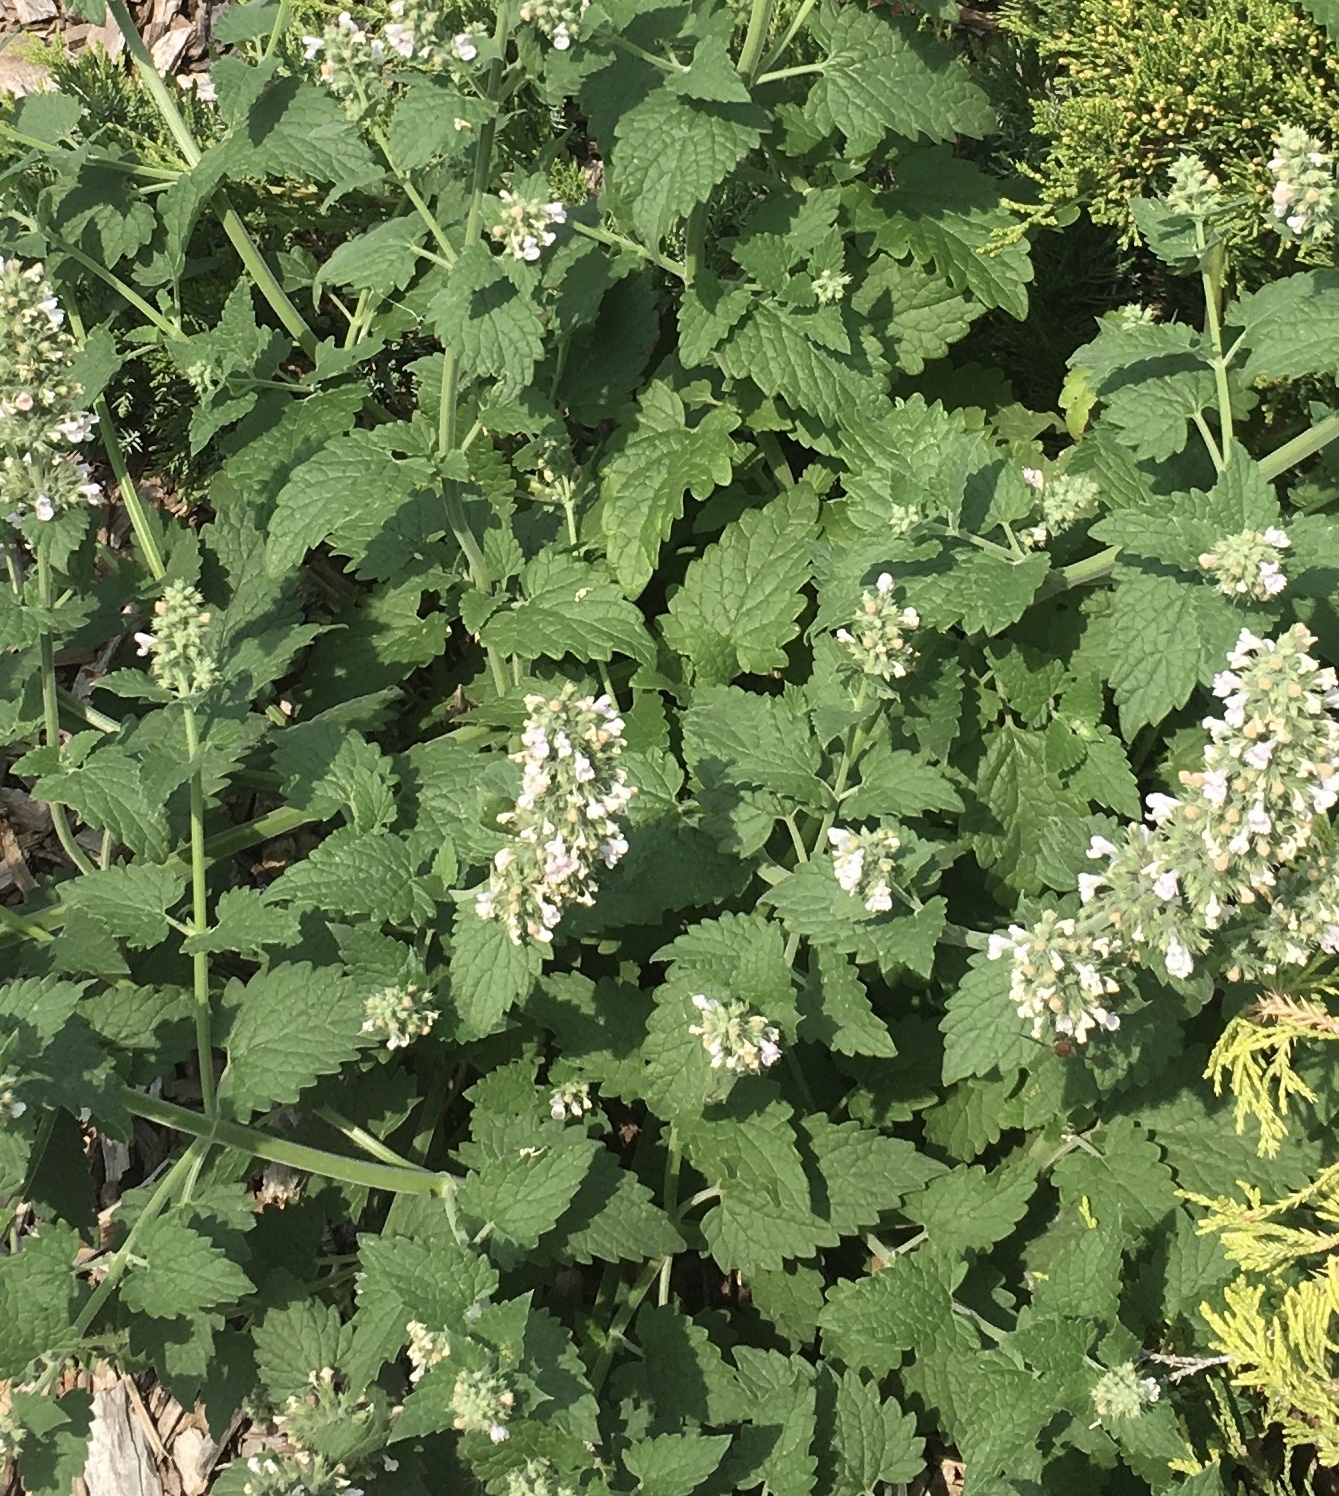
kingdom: Plantae
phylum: Tracheophyta
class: Magnoliopsida
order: Lamiales
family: Lamiaceae
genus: Nepeta
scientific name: Nepeta cataria
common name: Catnip
